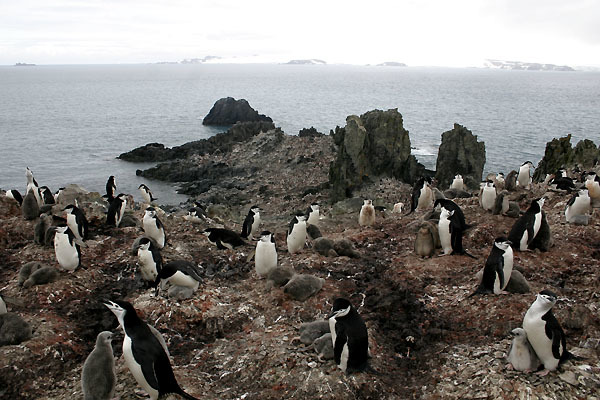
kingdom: Animalia
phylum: Chordata
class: Aves
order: Sphenisciformes
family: Spheniscidae
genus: Pygoscelis
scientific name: Pygoscelis antarcticus
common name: Chinstrap penguin
